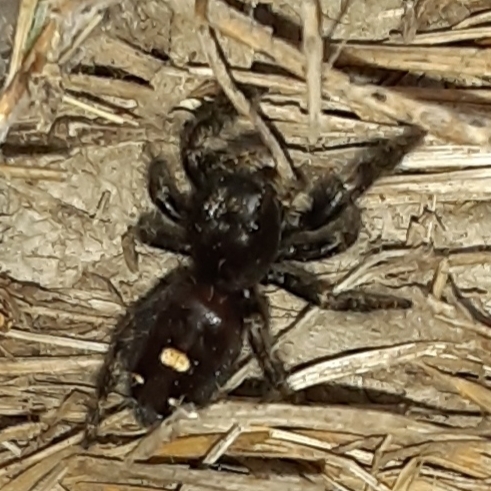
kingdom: Animalia
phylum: Arthropoda
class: Arachnida
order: Araneae
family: Salticidae
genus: Phidippus
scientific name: Phidippus audax
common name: Bold jumper
